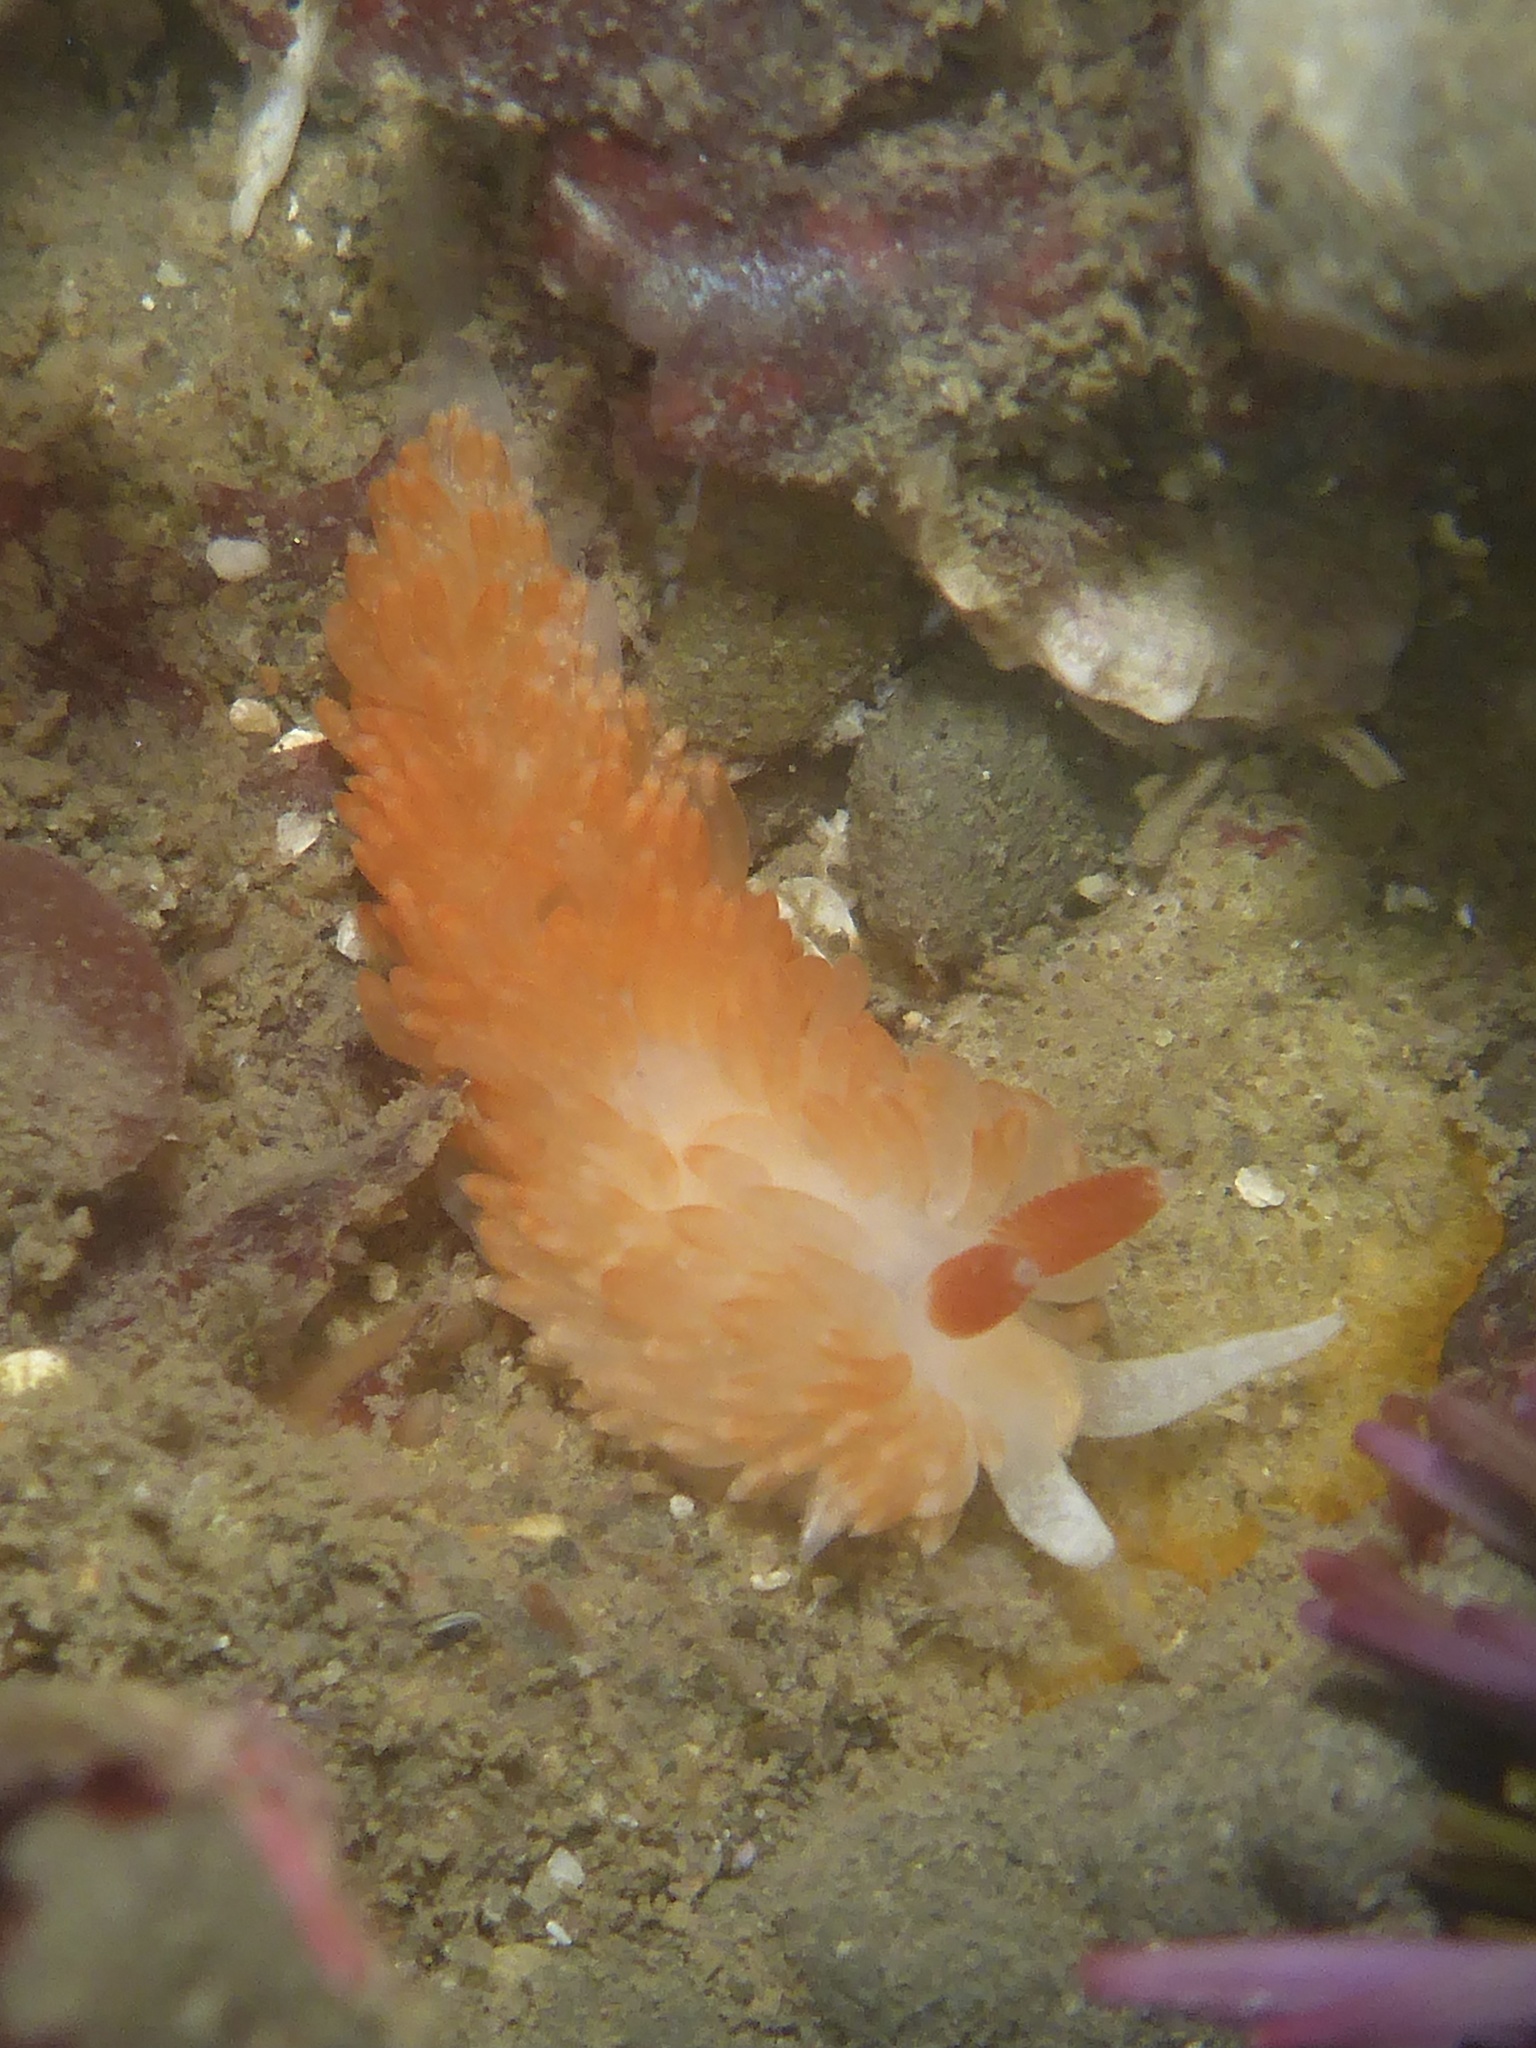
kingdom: Animalia
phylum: Mollusca
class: Gastropoda
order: Nudibranchia
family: Aeolidiidae
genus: Anteaeolidiella
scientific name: Anteaeolidiella oliviae
